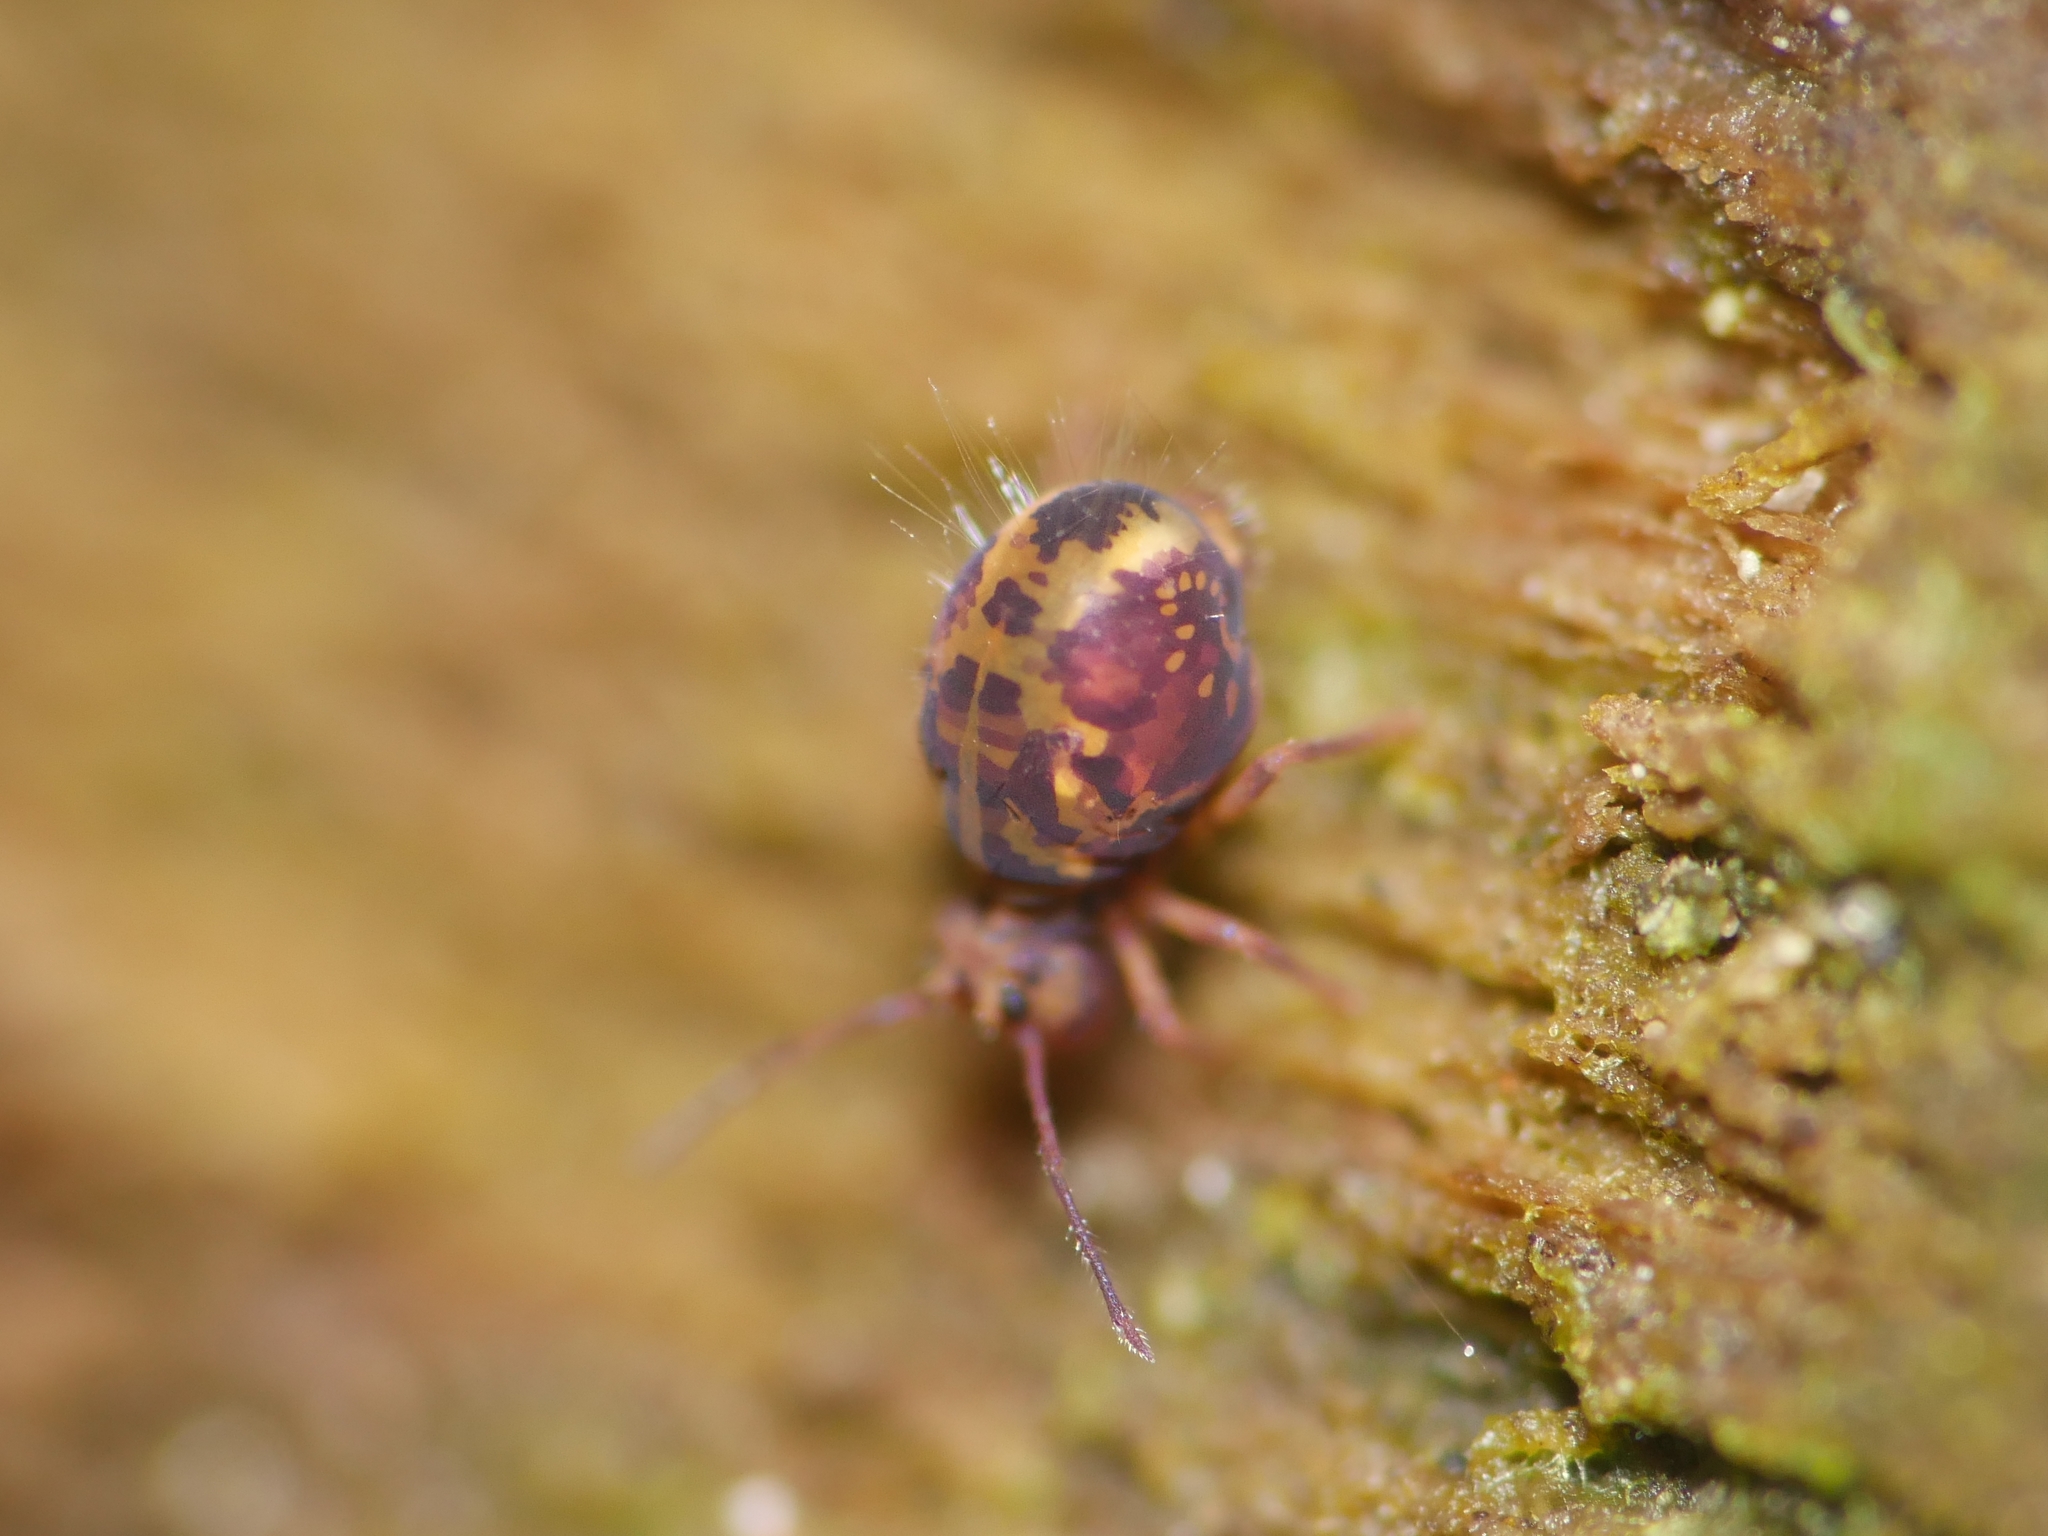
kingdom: Animalia
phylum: Arthropoda
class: Collembola
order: Symphypleona
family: Dicyrtomidae
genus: Dicyrtomina
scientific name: Dicyrtomina ornata
